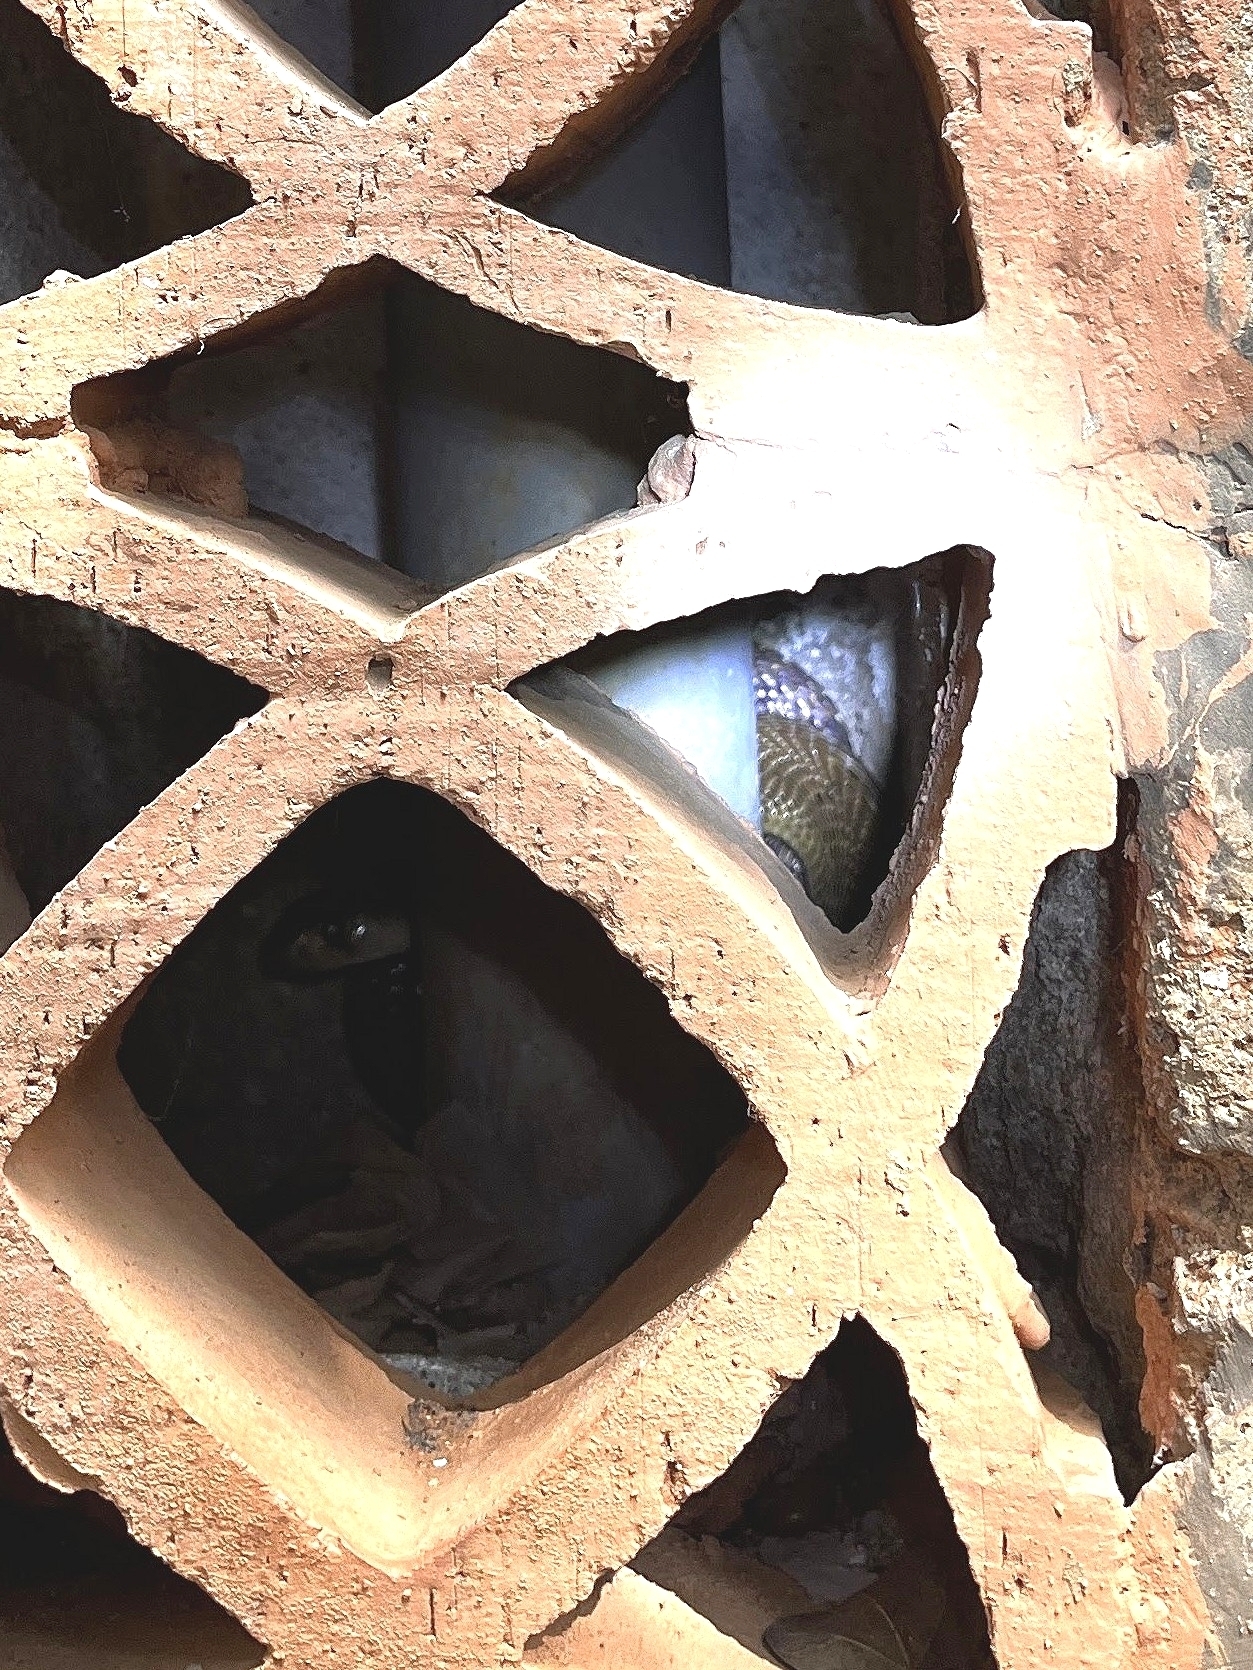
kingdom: Animalia
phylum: Chordata
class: Squamata
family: Elapidae
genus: Naja
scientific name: Naja naja
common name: Indian cobra
